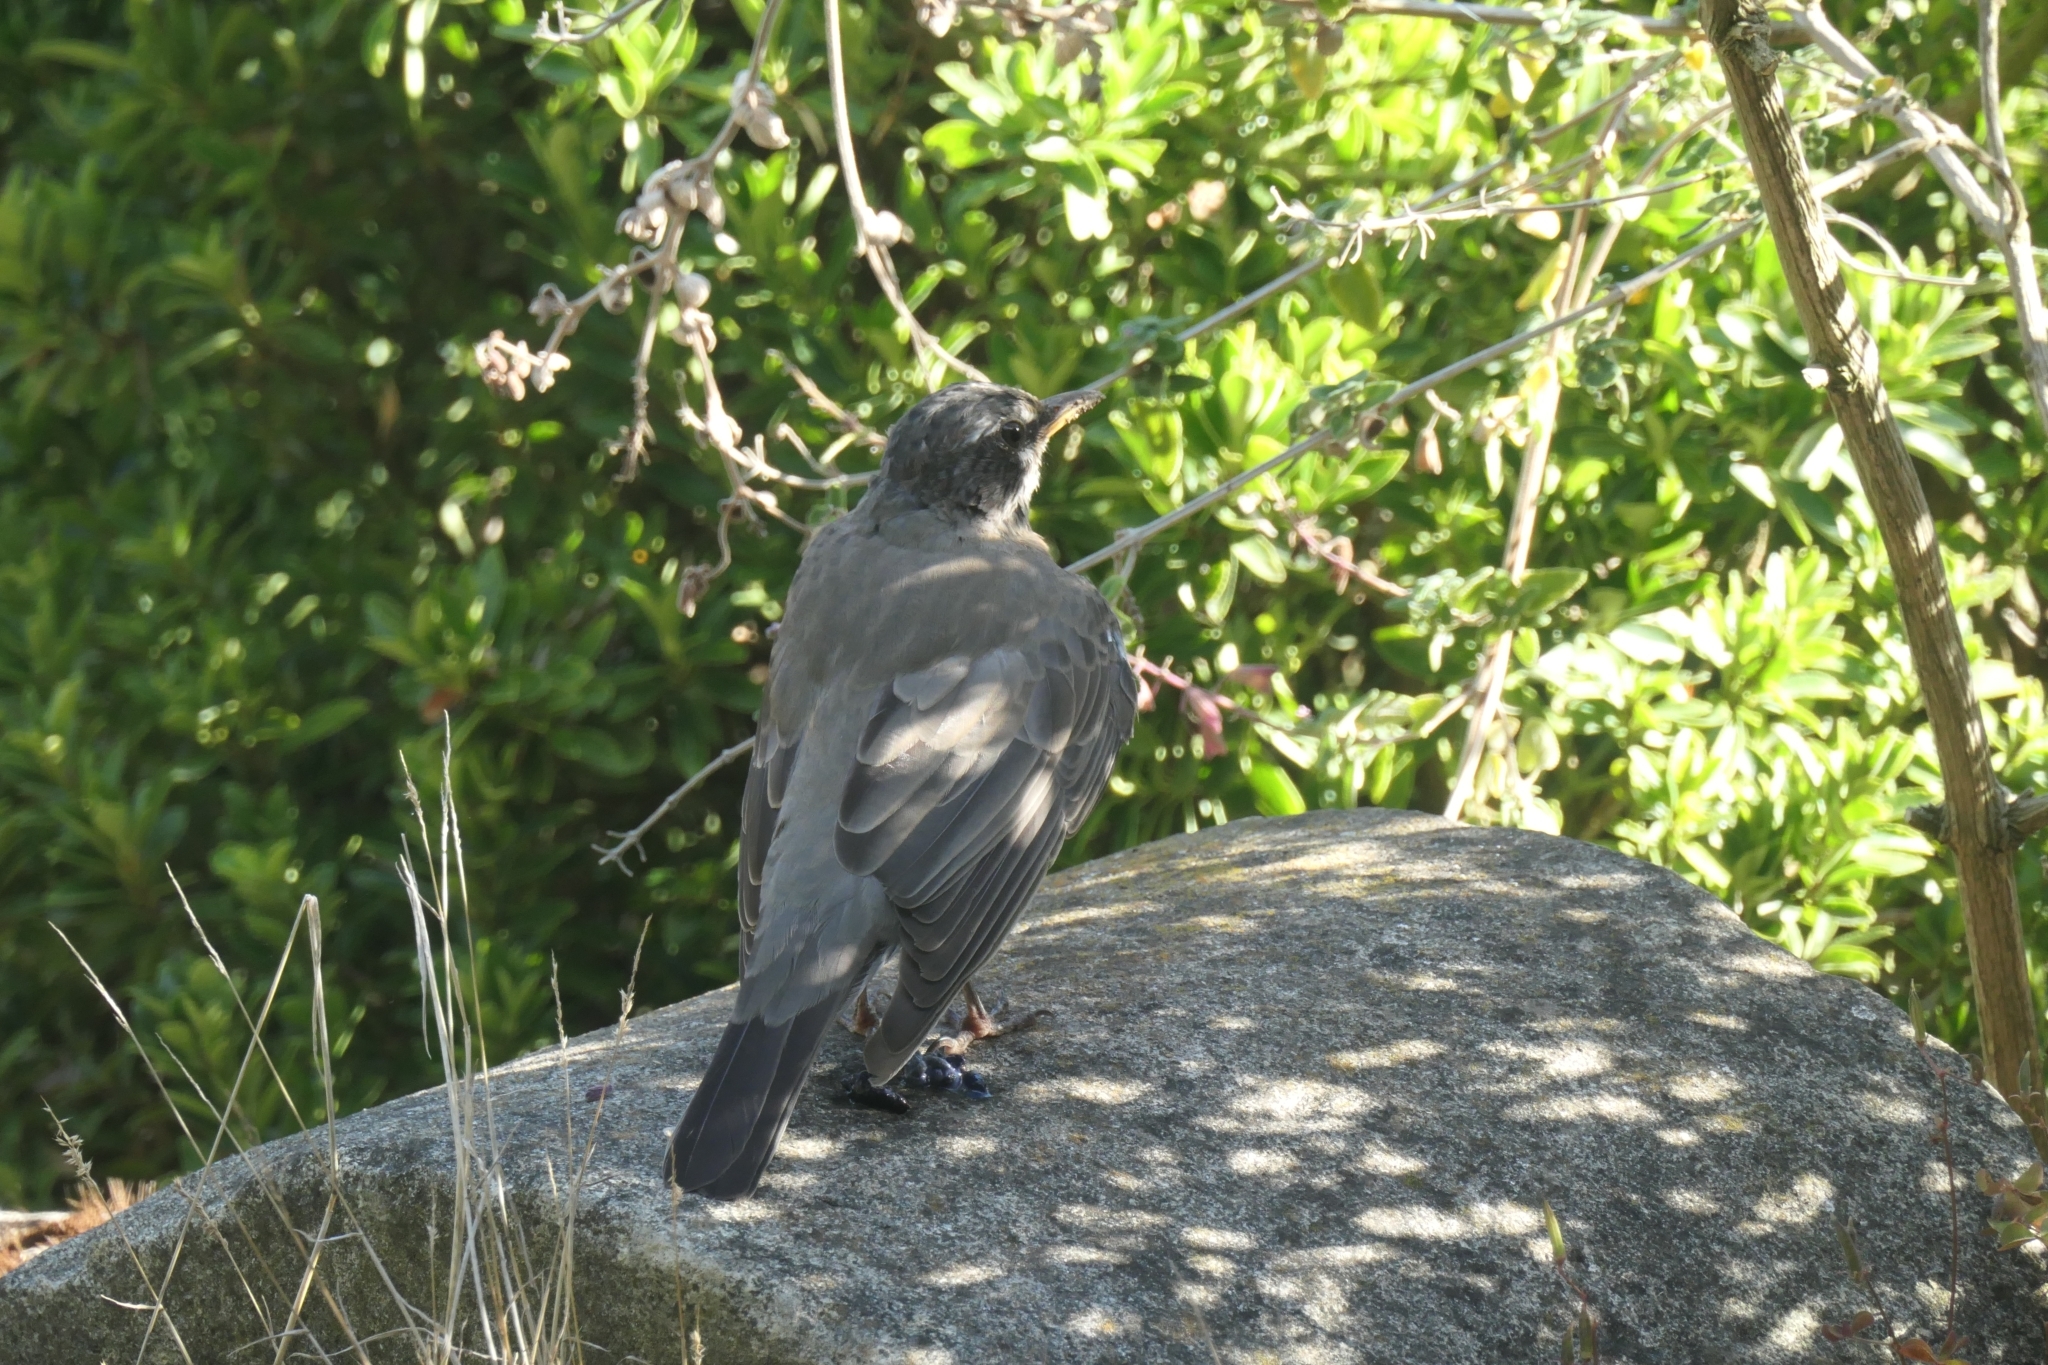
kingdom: Animalia
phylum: Chordata
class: Aves
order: Passeriformes
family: Turdidae
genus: Turdus
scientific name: Turdus migratorius
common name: American robin
